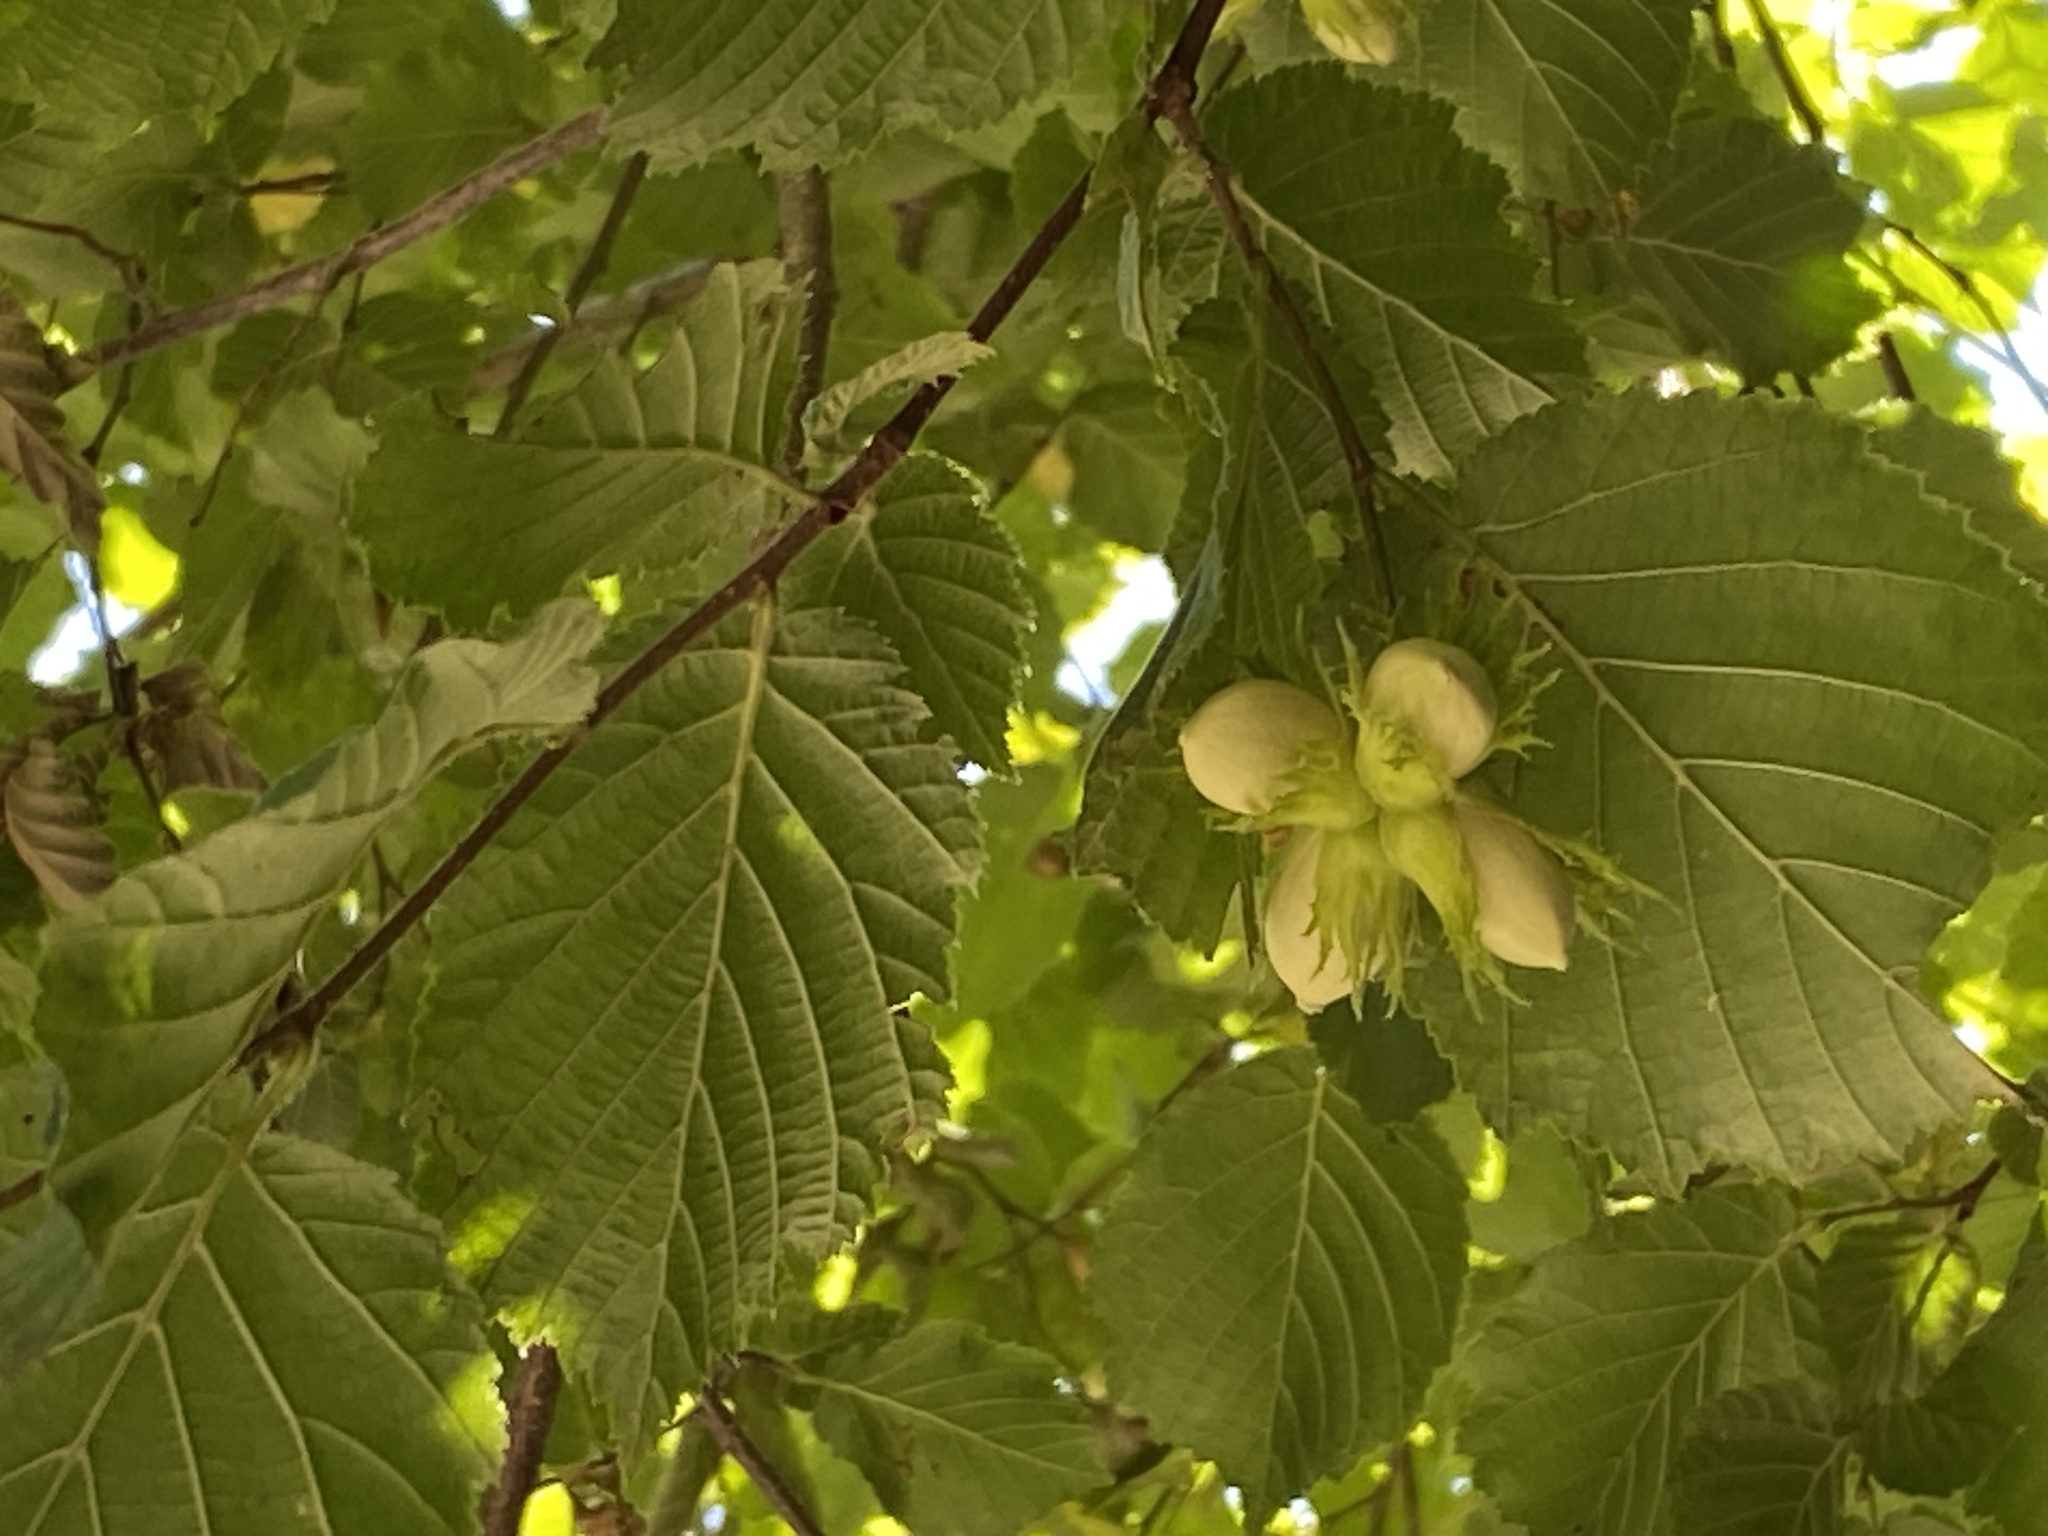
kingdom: Plantae
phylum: Tracheophyta
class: Magnoliopsida
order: Fagales
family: Betulaceae
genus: Corylus
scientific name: Corylus avellana
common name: European hazel
